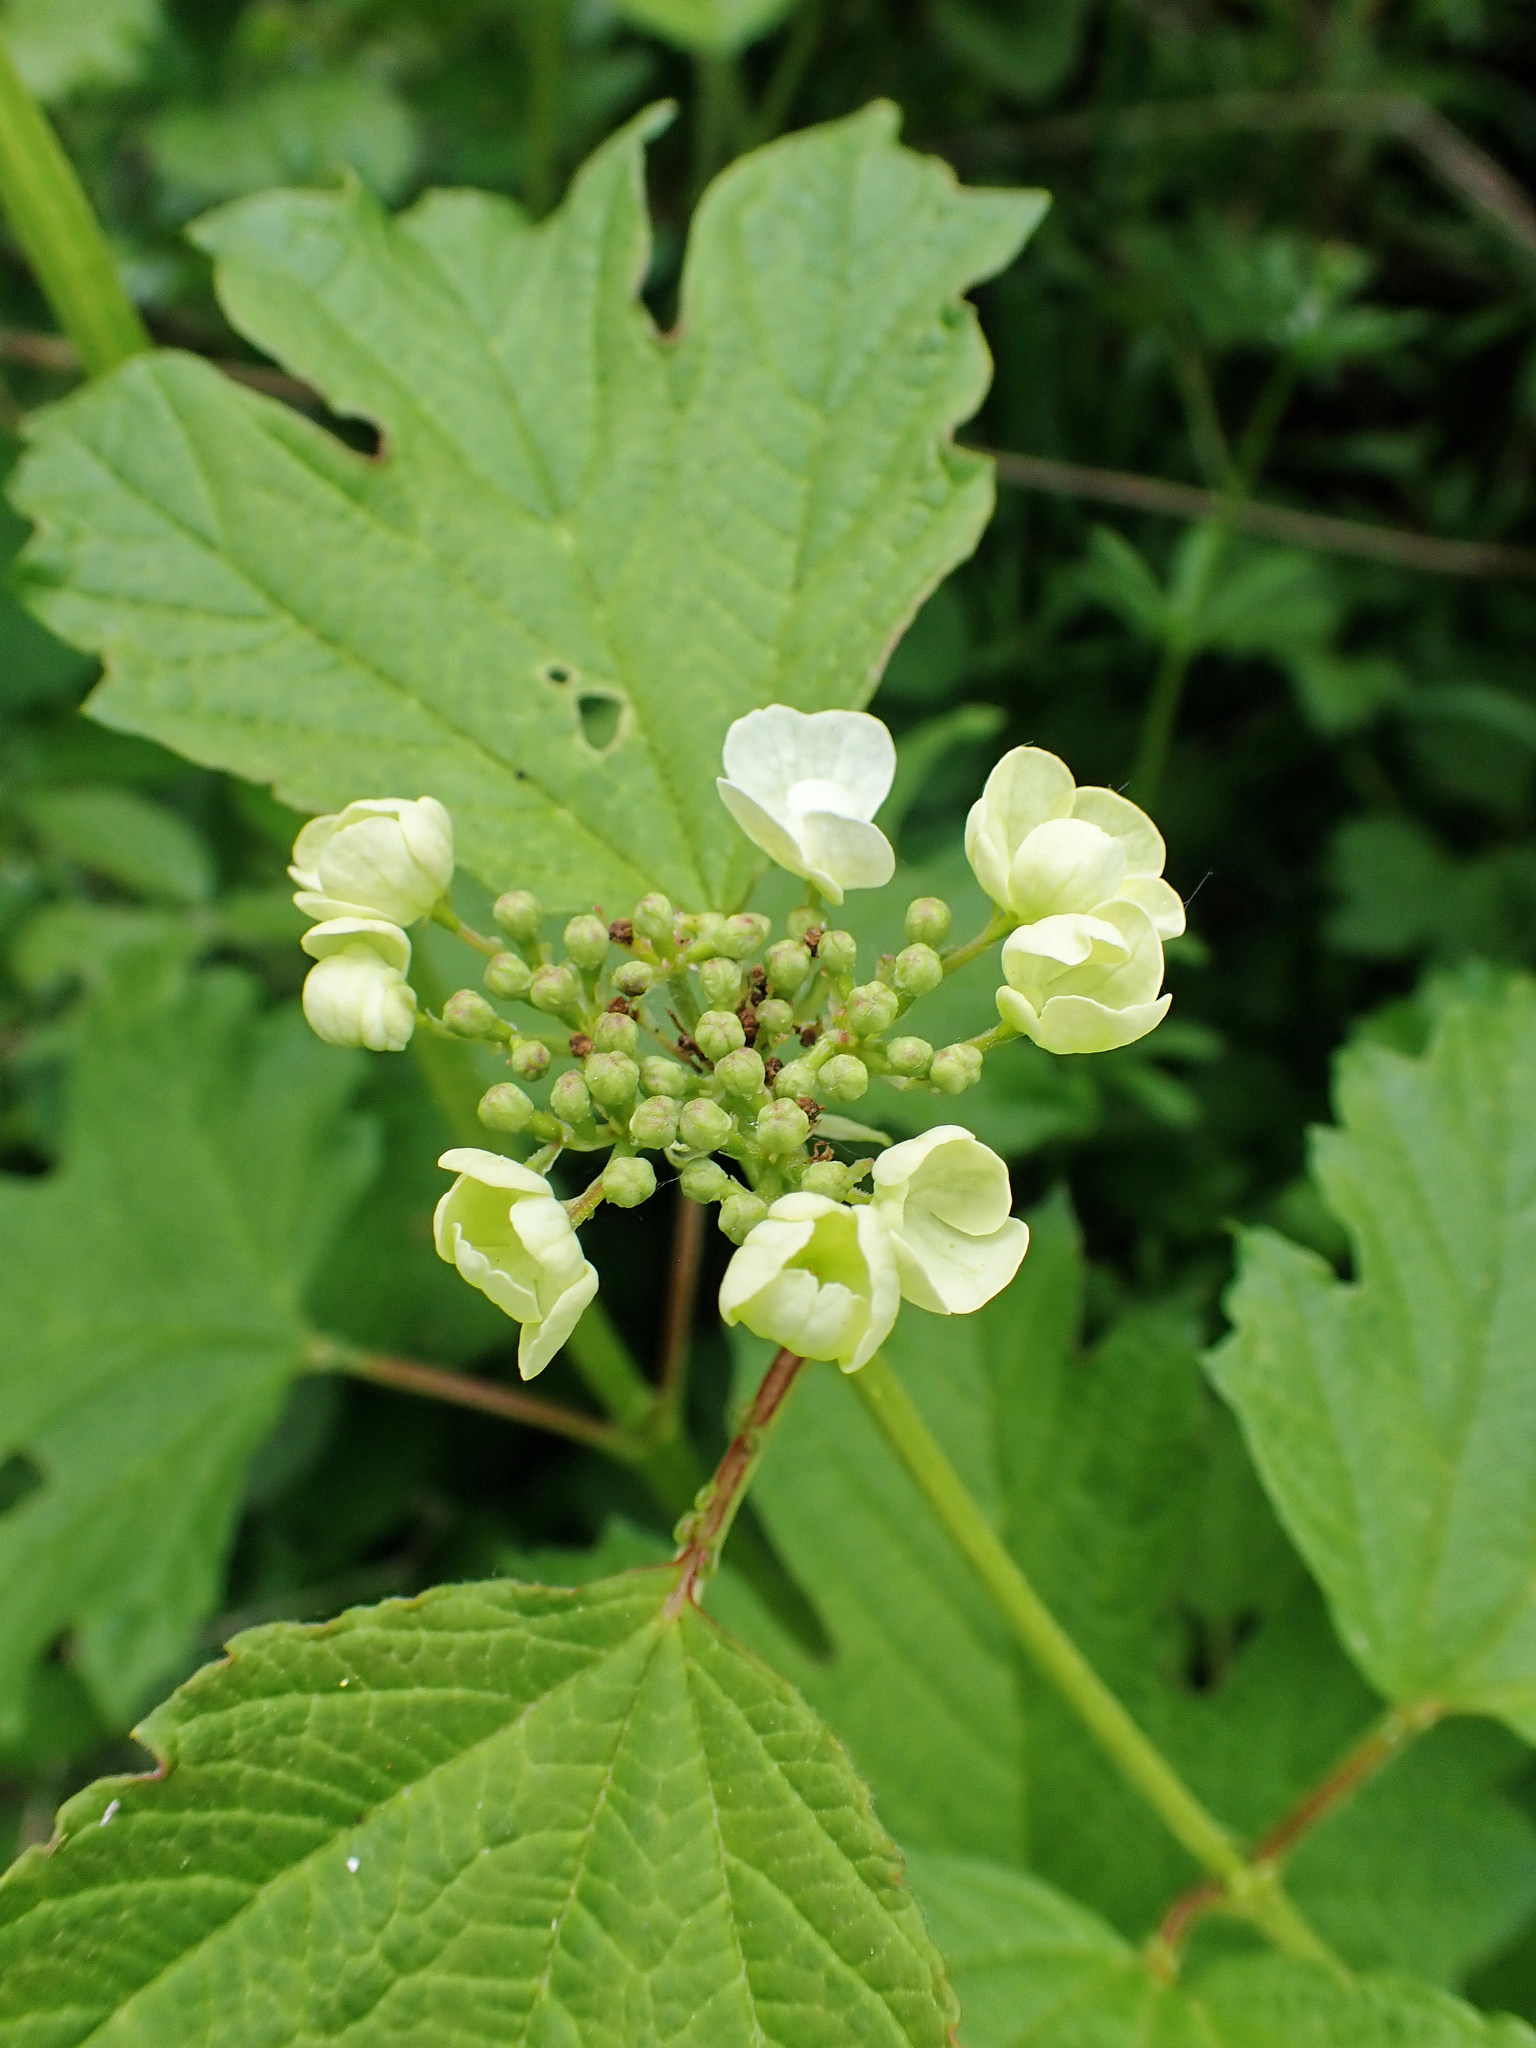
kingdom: Plantae
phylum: Tracheophyta
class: Magnoliopsida
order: Dipsacales
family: Viburnaceae
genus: Viburnum
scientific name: Viburnum opulus
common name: Guelder-rose
